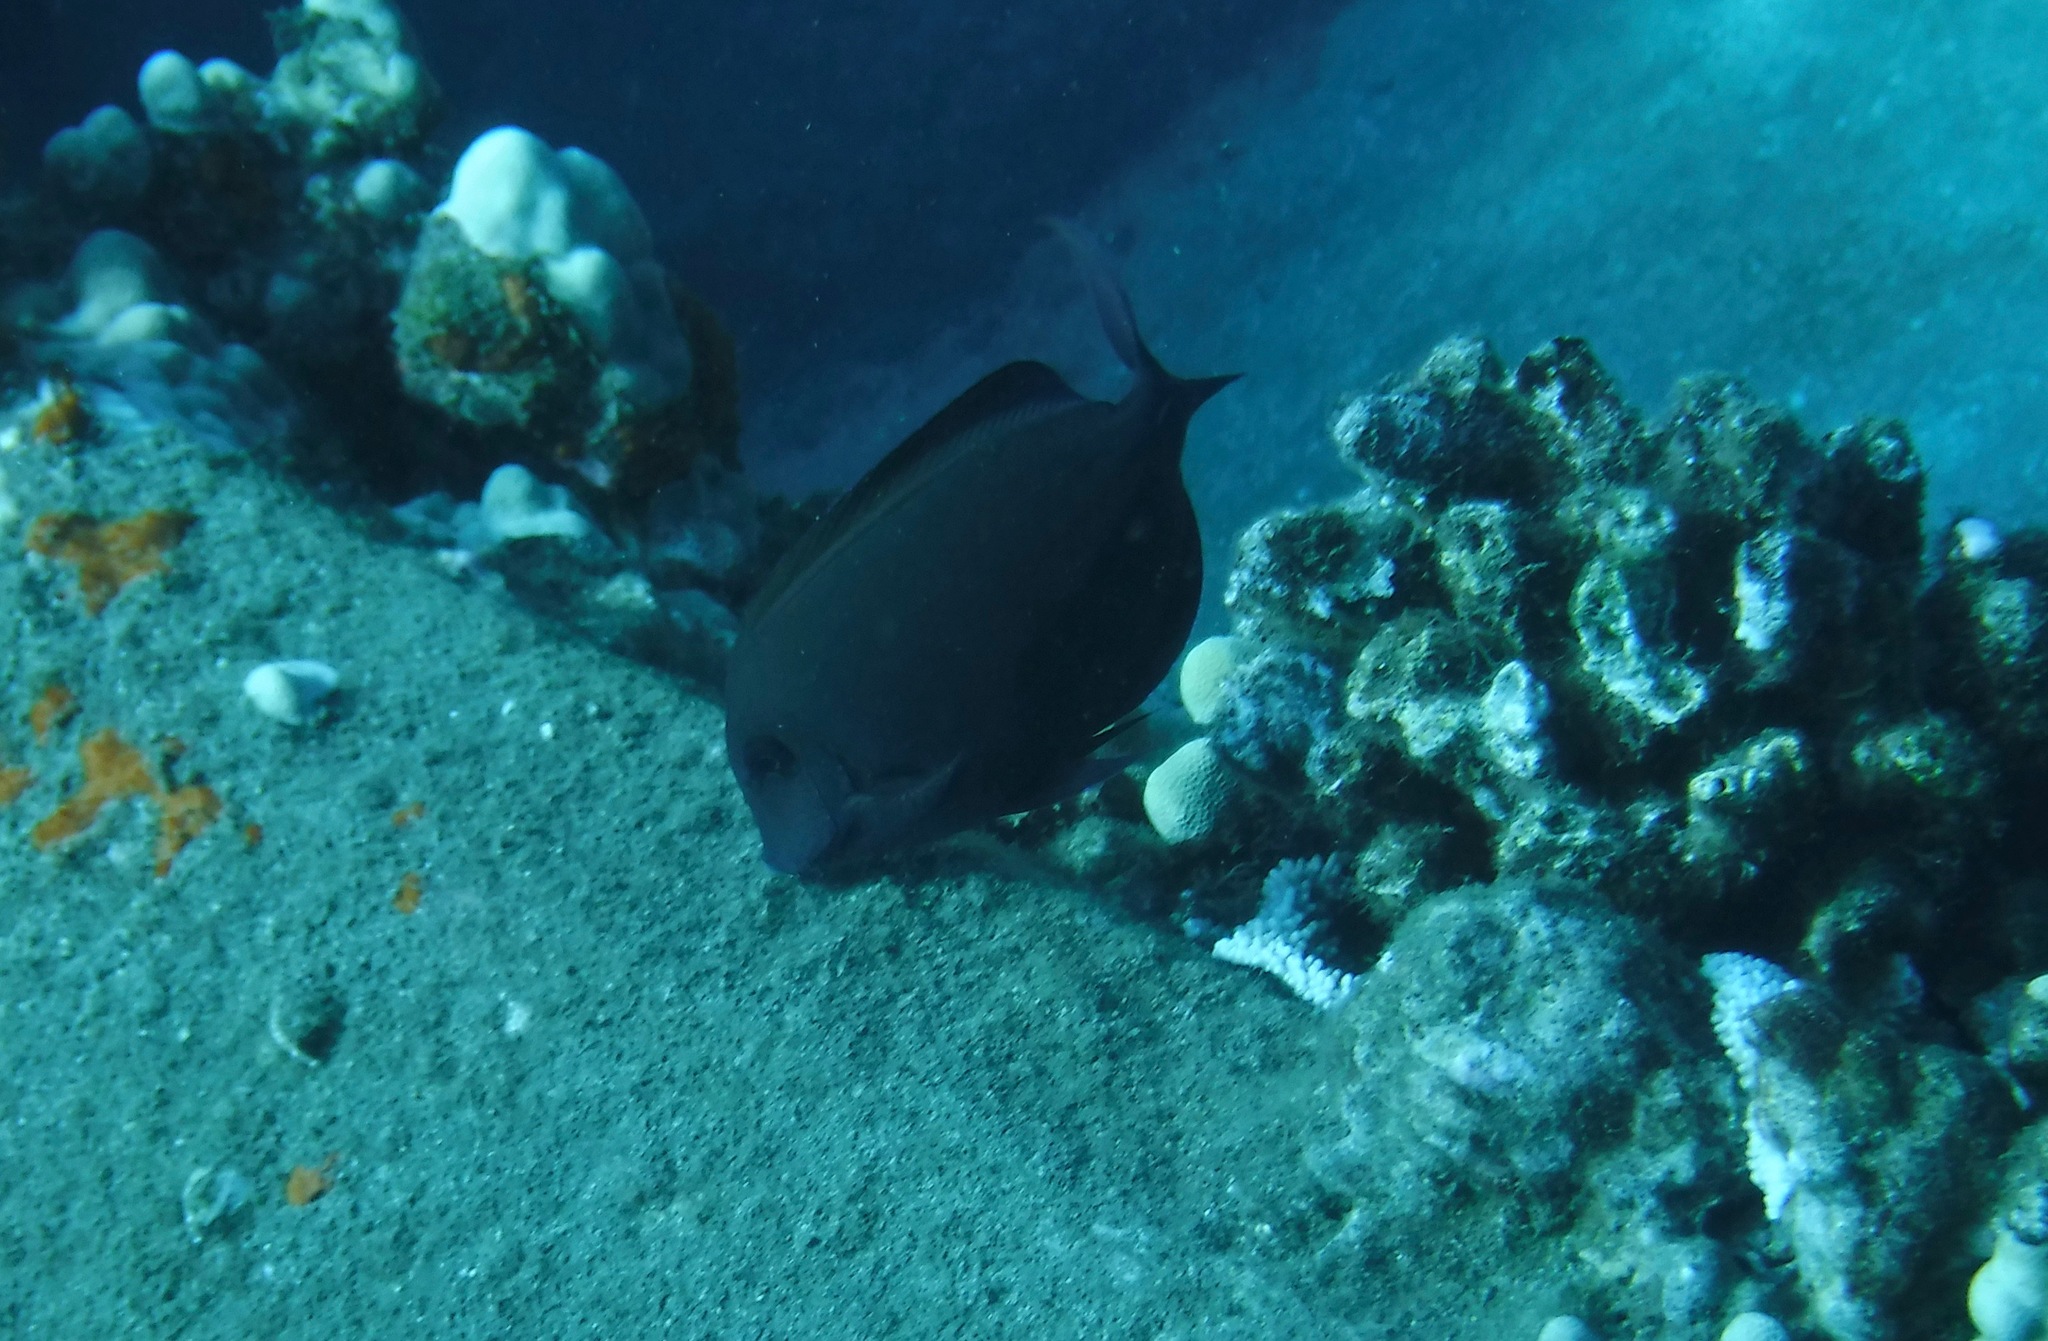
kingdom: Animalia
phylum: Chordata
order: Perciformes
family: Acanthuridae
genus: Acanthurus
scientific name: Acanthurus nigrofuscus
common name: Blackspot surgeonfish
